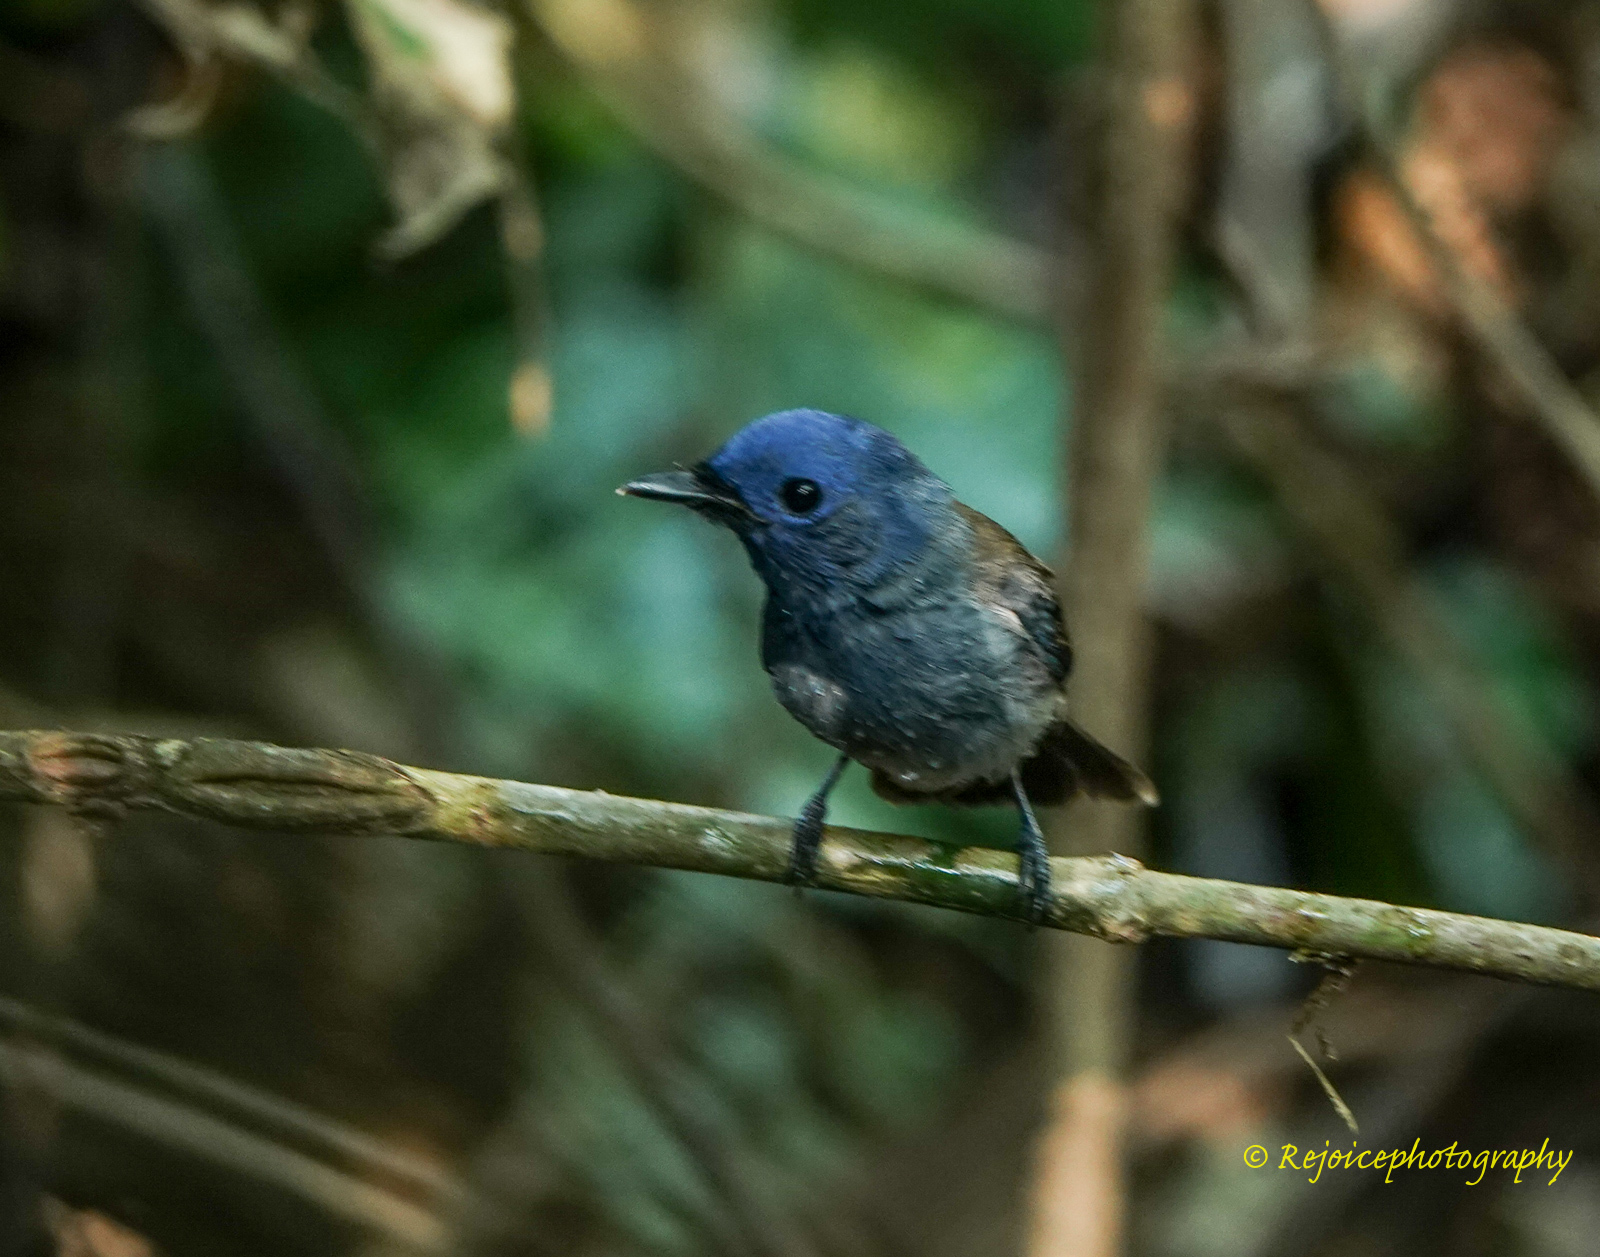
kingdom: Animalia
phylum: Chordata
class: Aves
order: Passeriformes
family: Monarchidae
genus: Hypothymis
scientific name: Hypothymis azurea
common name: Black-naped monarch
